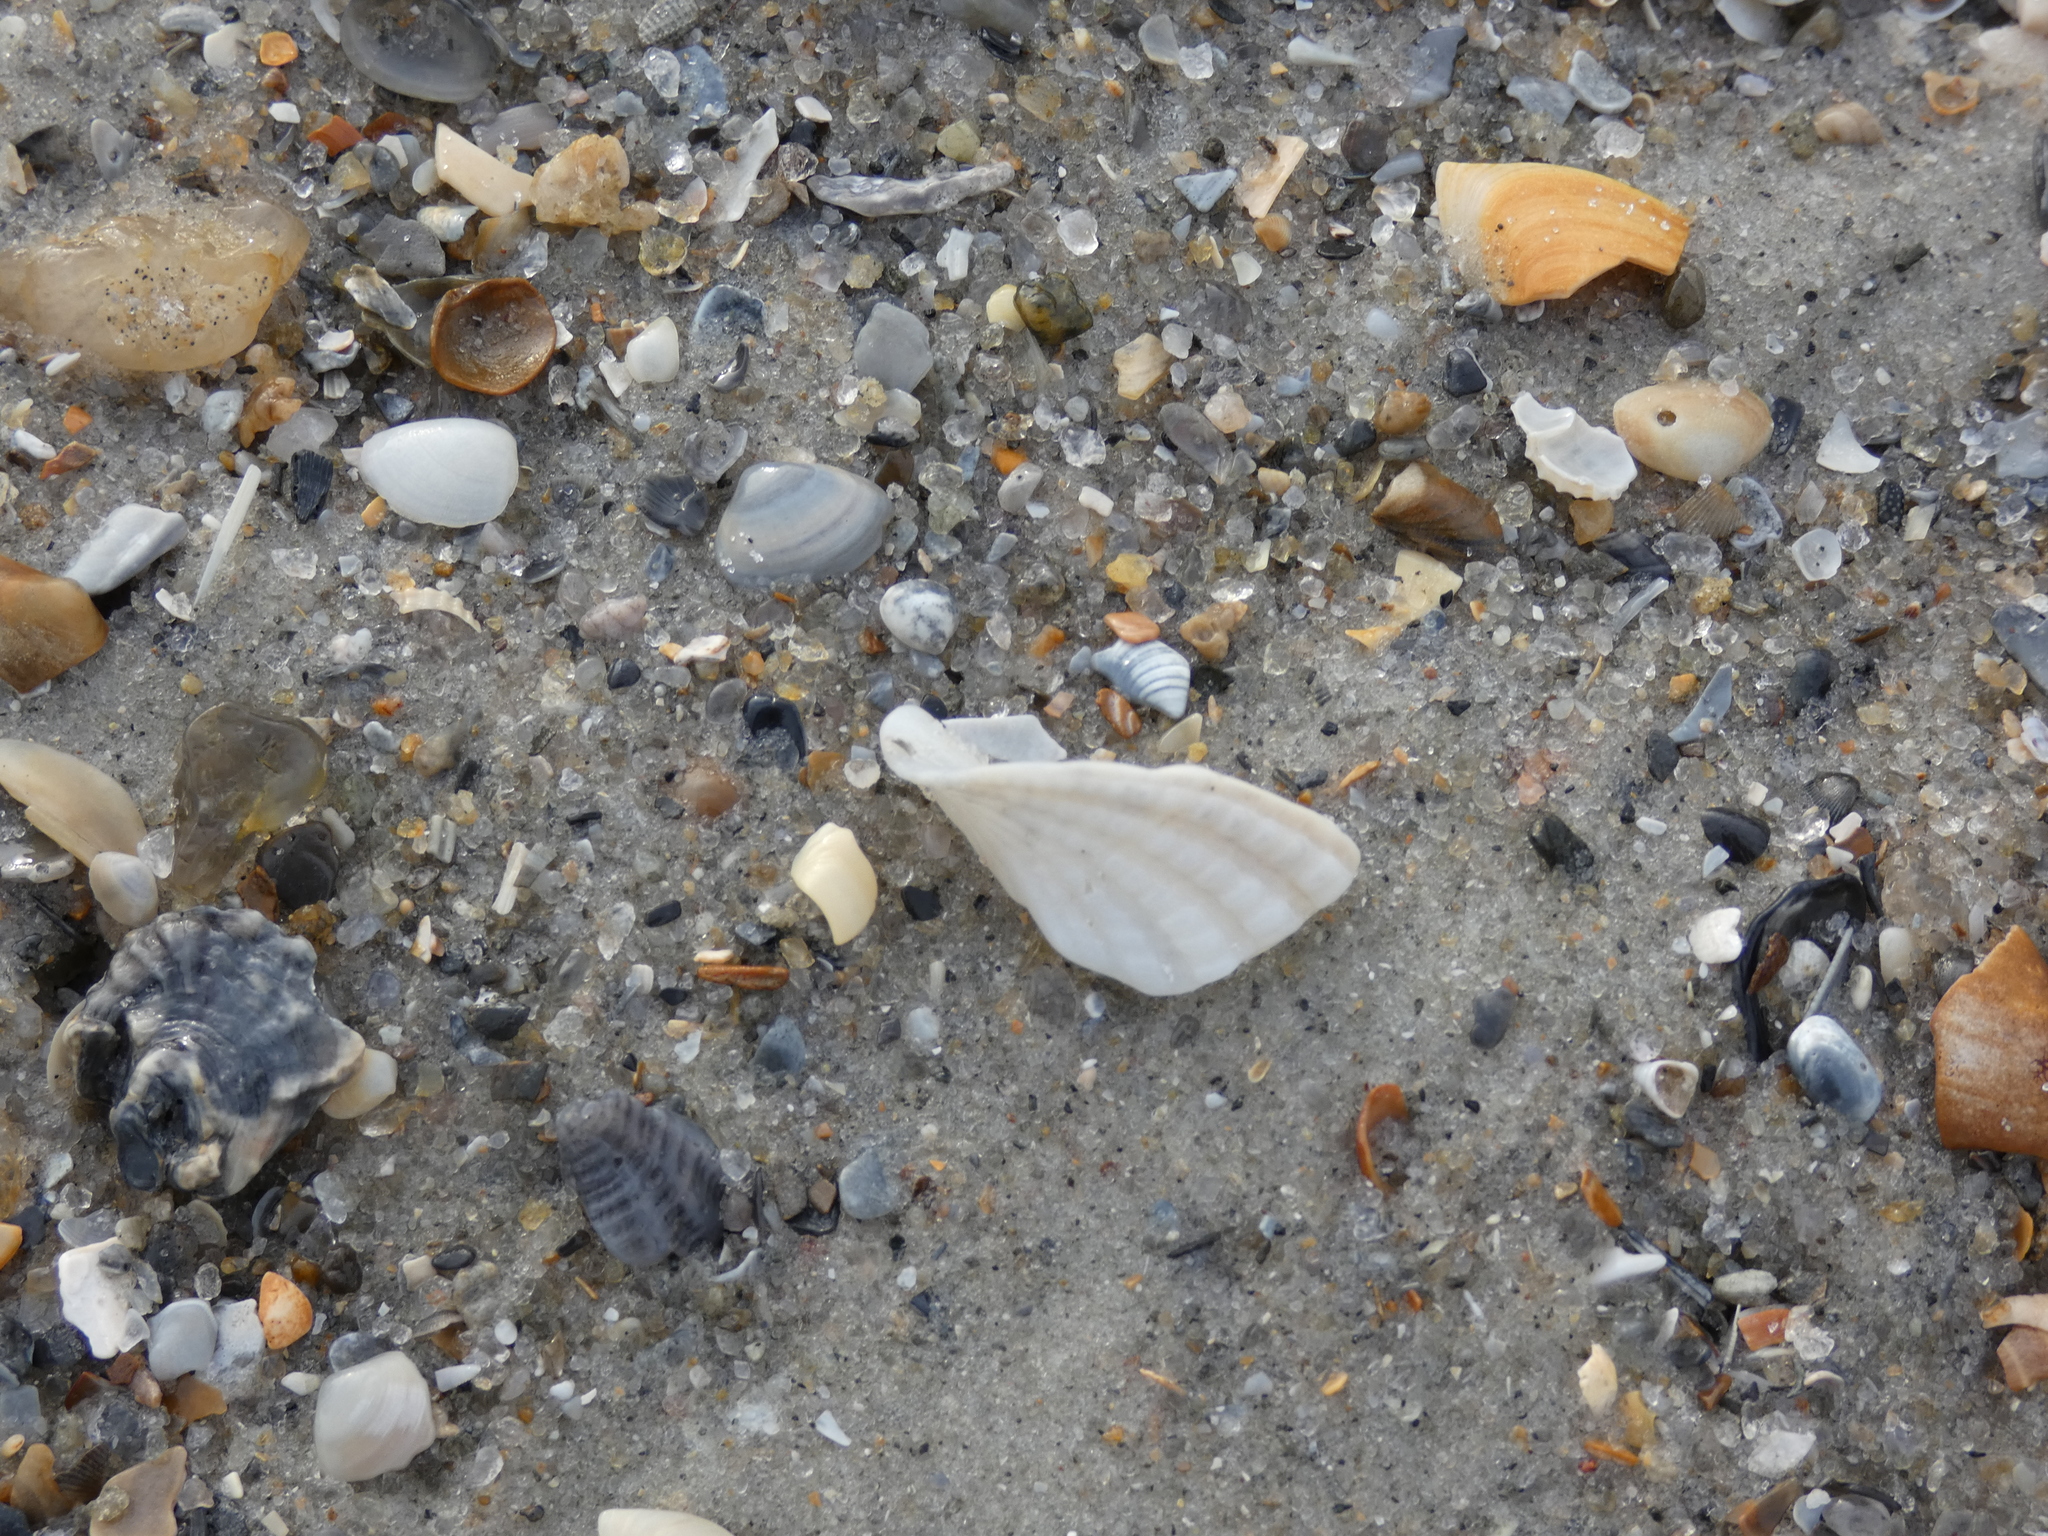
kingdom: Animalia
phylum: Mollusca
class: Bivalvia
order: Myida
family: Pholadidae
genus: Cyrtopleura
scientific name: Cyrtopleura costata
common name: Angel wing
